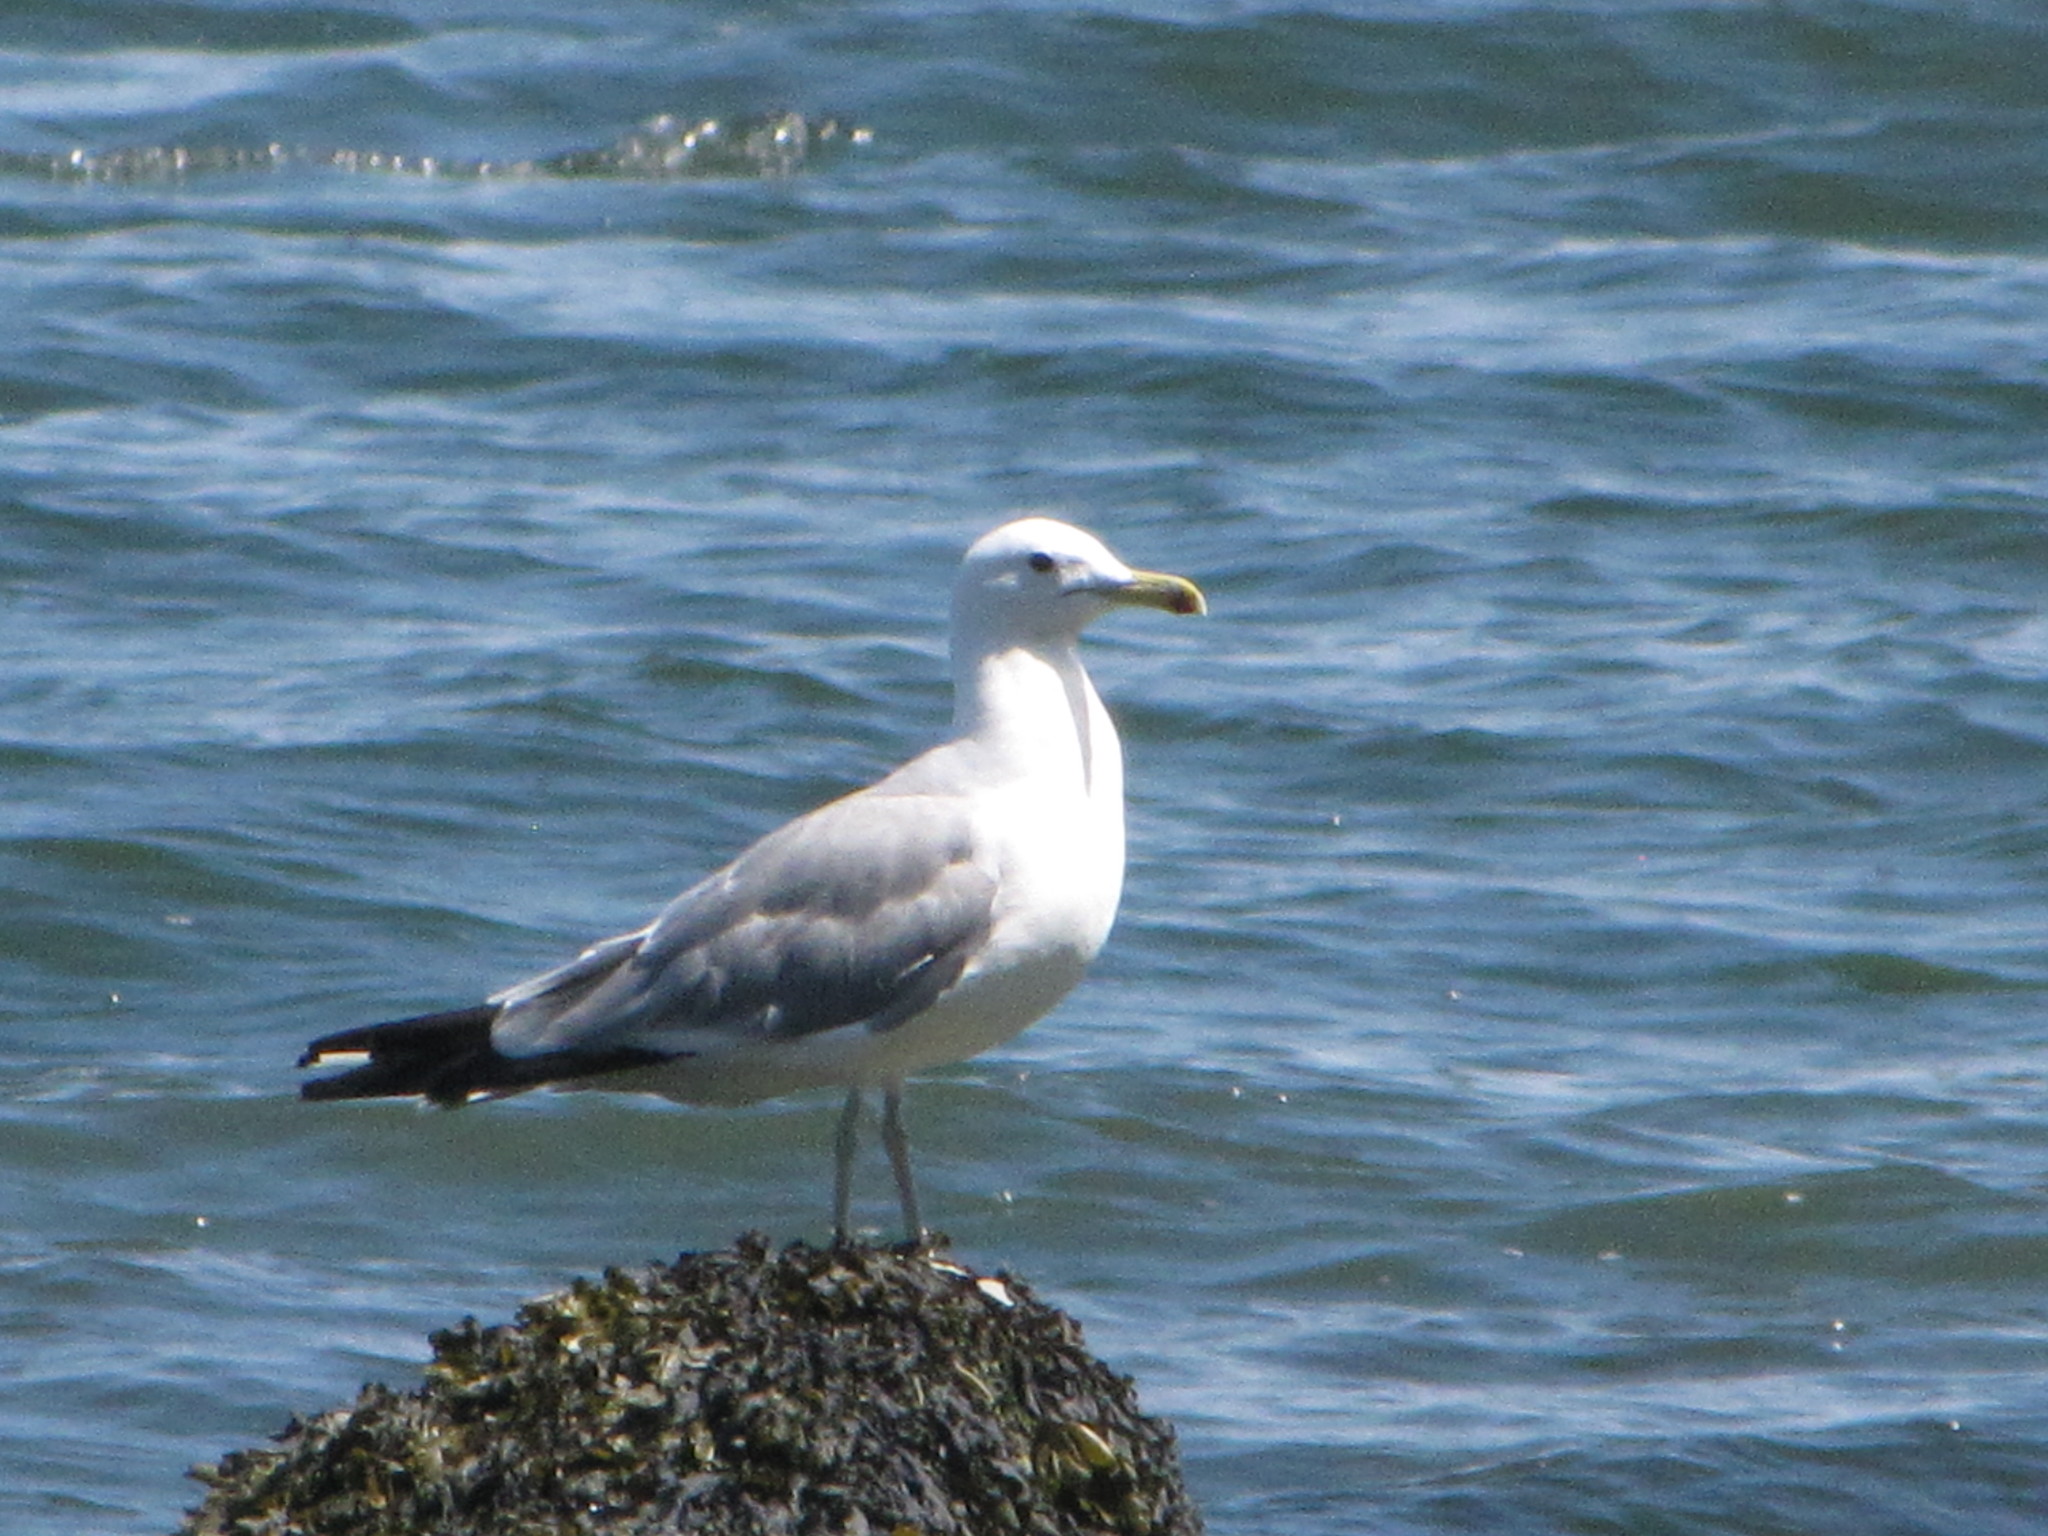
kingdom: Animalia
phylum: Chordata
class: Aves
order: Charadriiformes
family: Laridae
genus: Larus
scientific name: Larus californicus
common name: California gull
